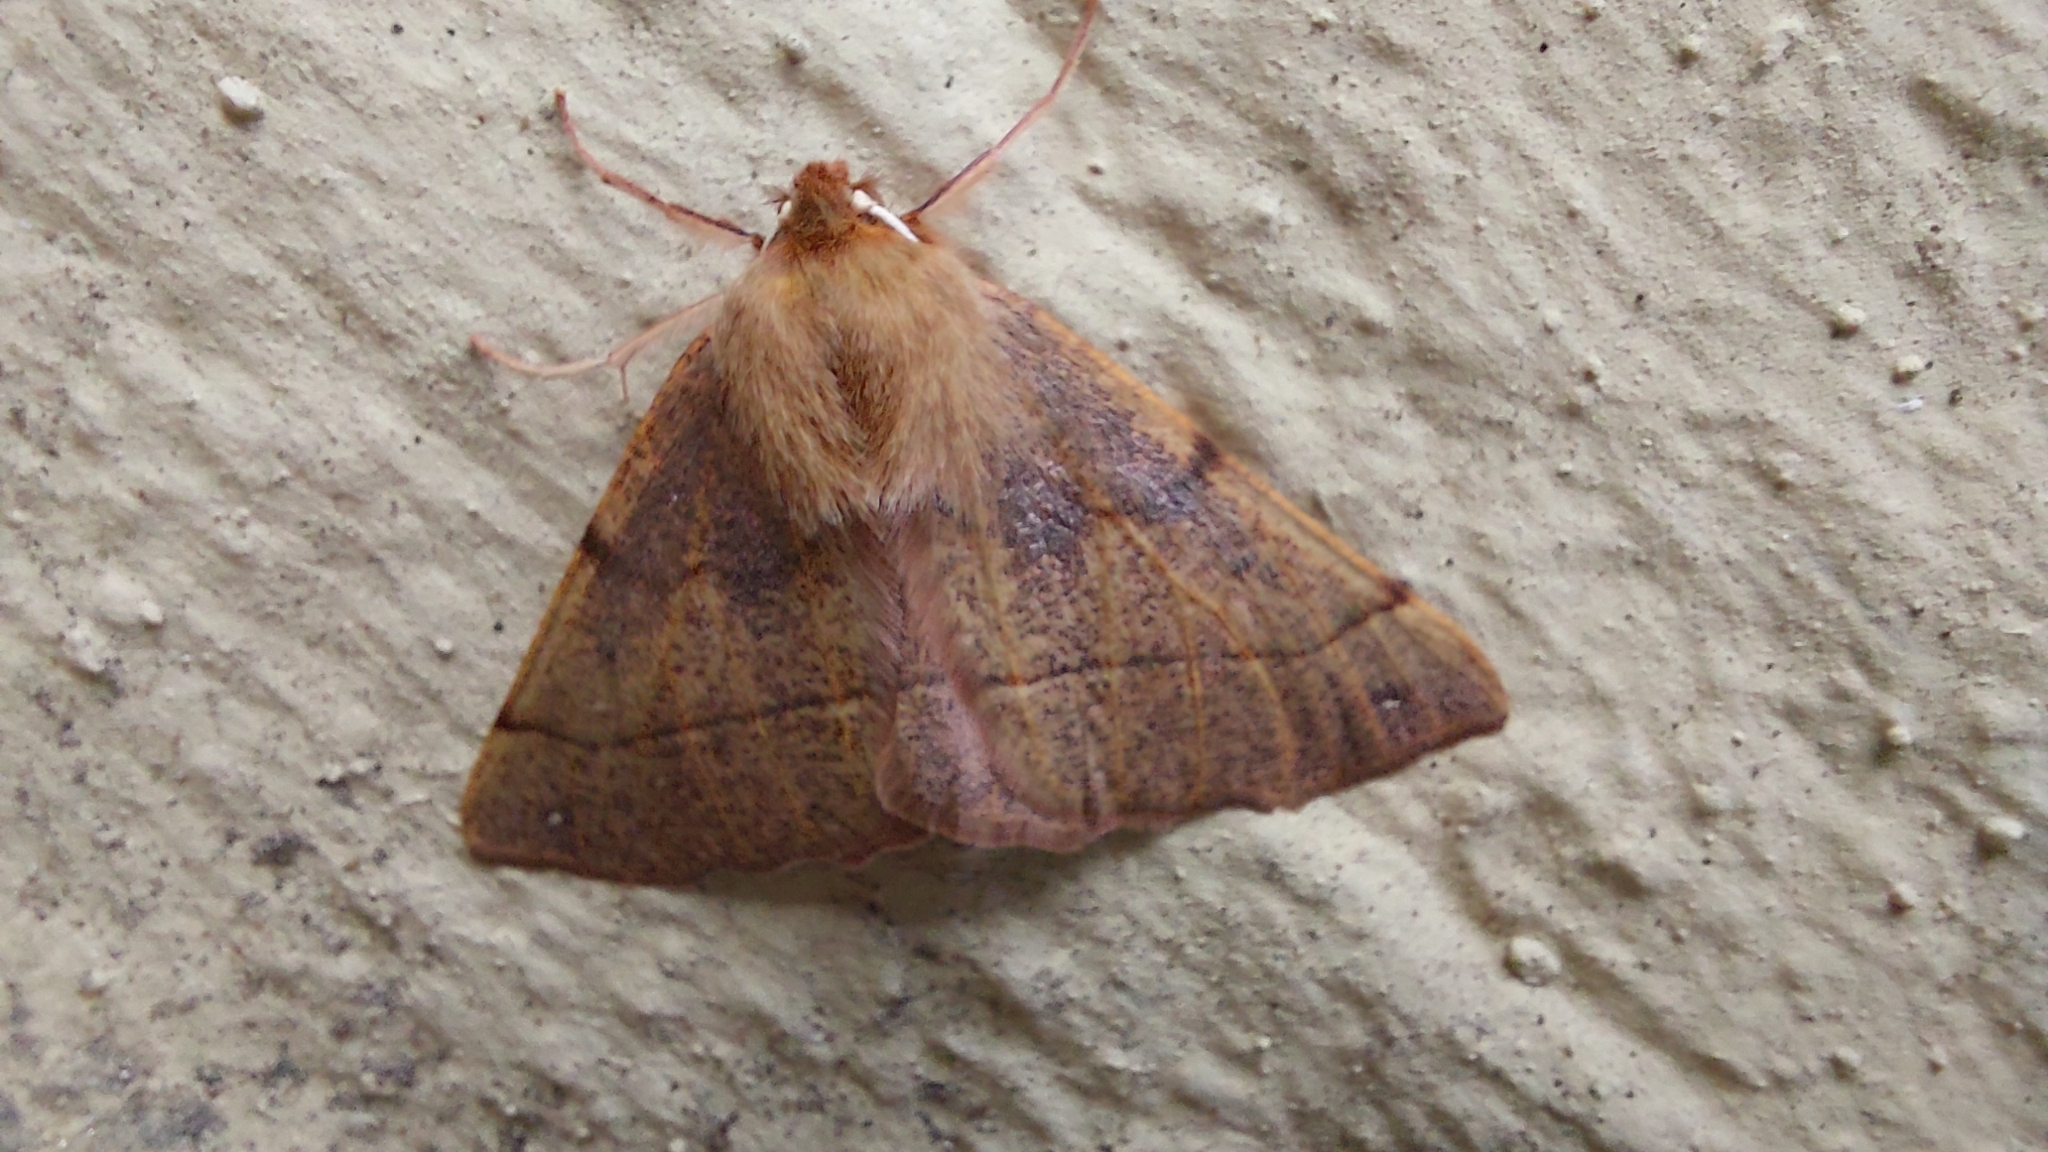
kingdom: Animalia
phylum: Arthropoda
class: Insecta
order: Lepidoptera
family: Geometridae
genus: Colotois
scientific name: Colotois pennaria
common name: Feathered thorn
